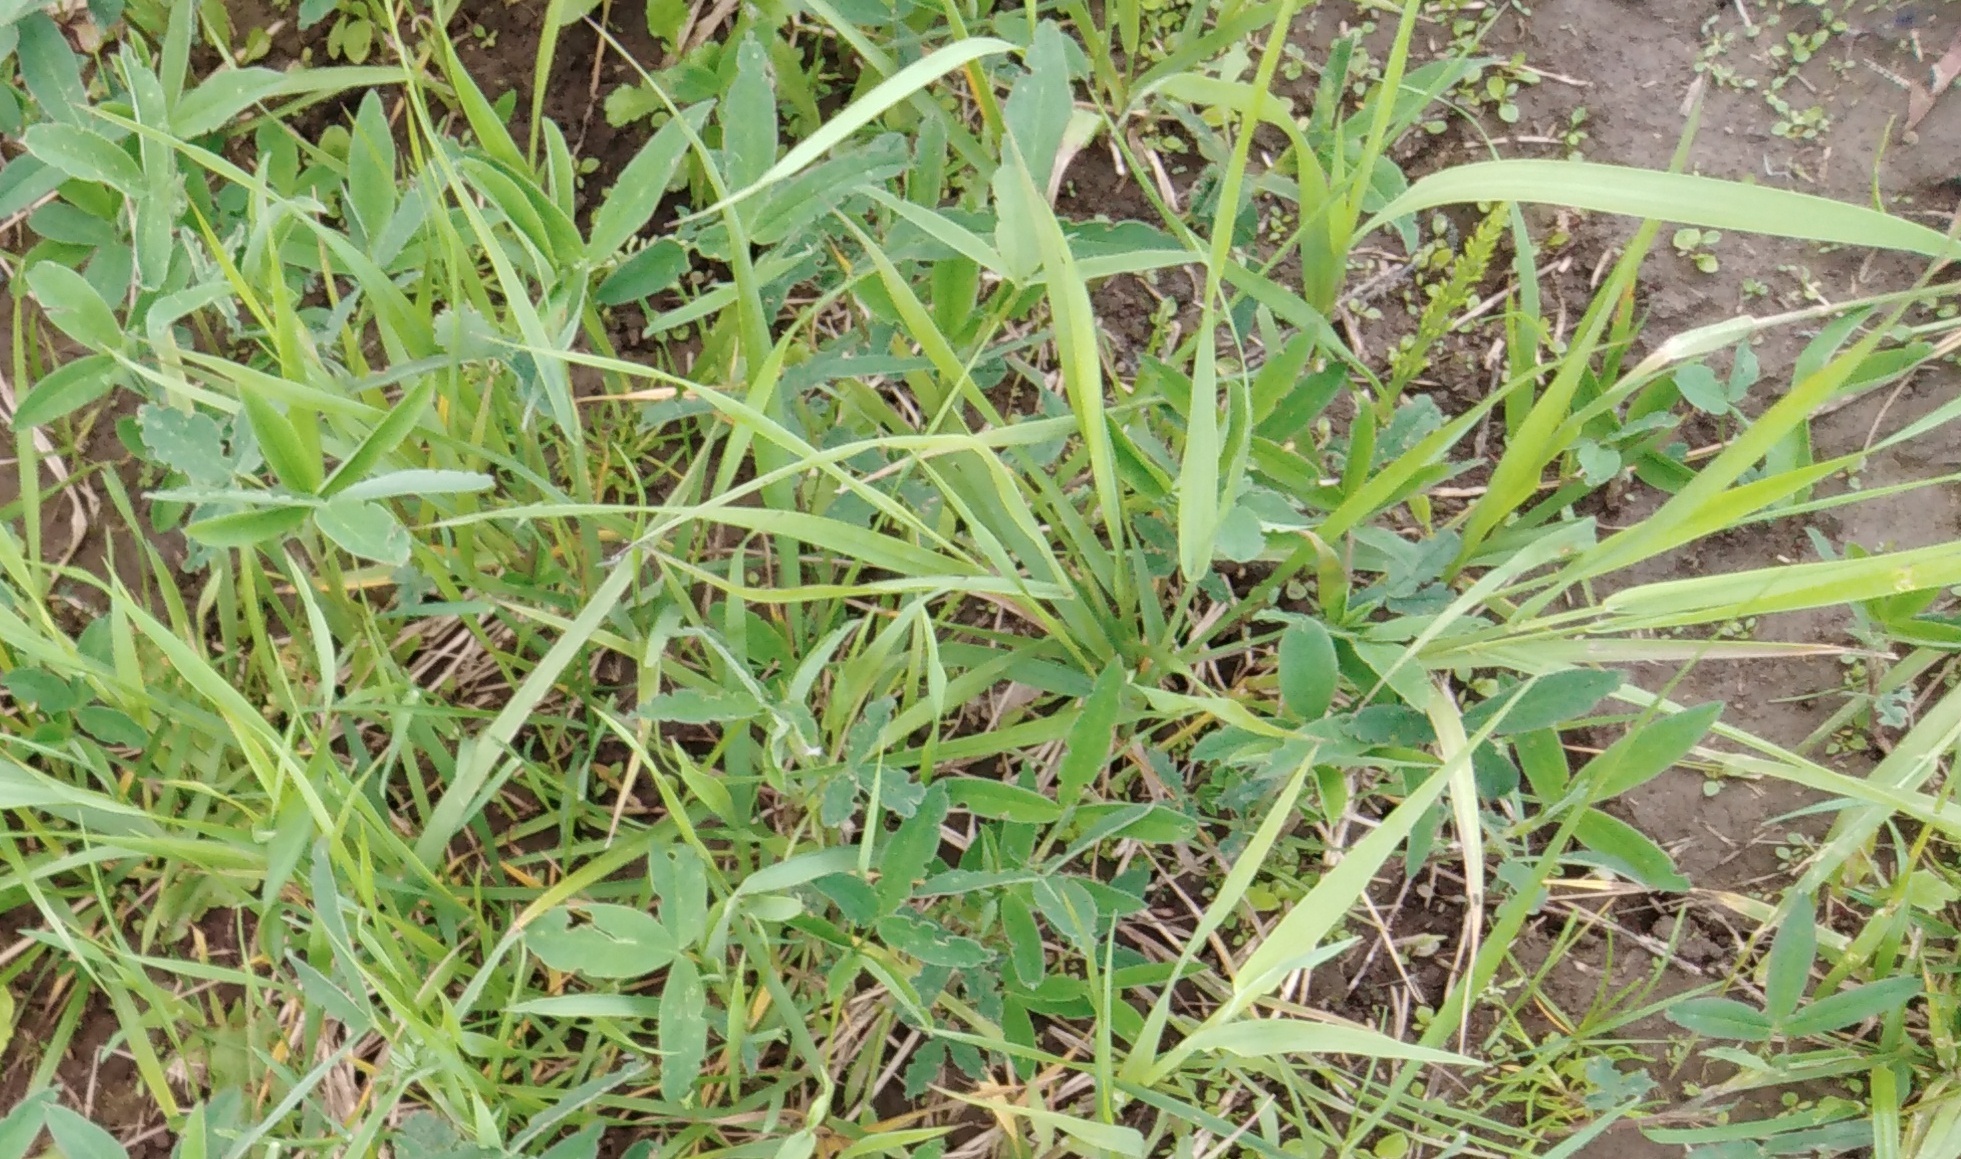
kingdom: Plantae
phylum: Tracheophyta
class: Magnoliopsida
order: Fabales
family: Fabaceae
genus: Trifolium
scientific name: Trifolium medium
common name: Zigzag clover
